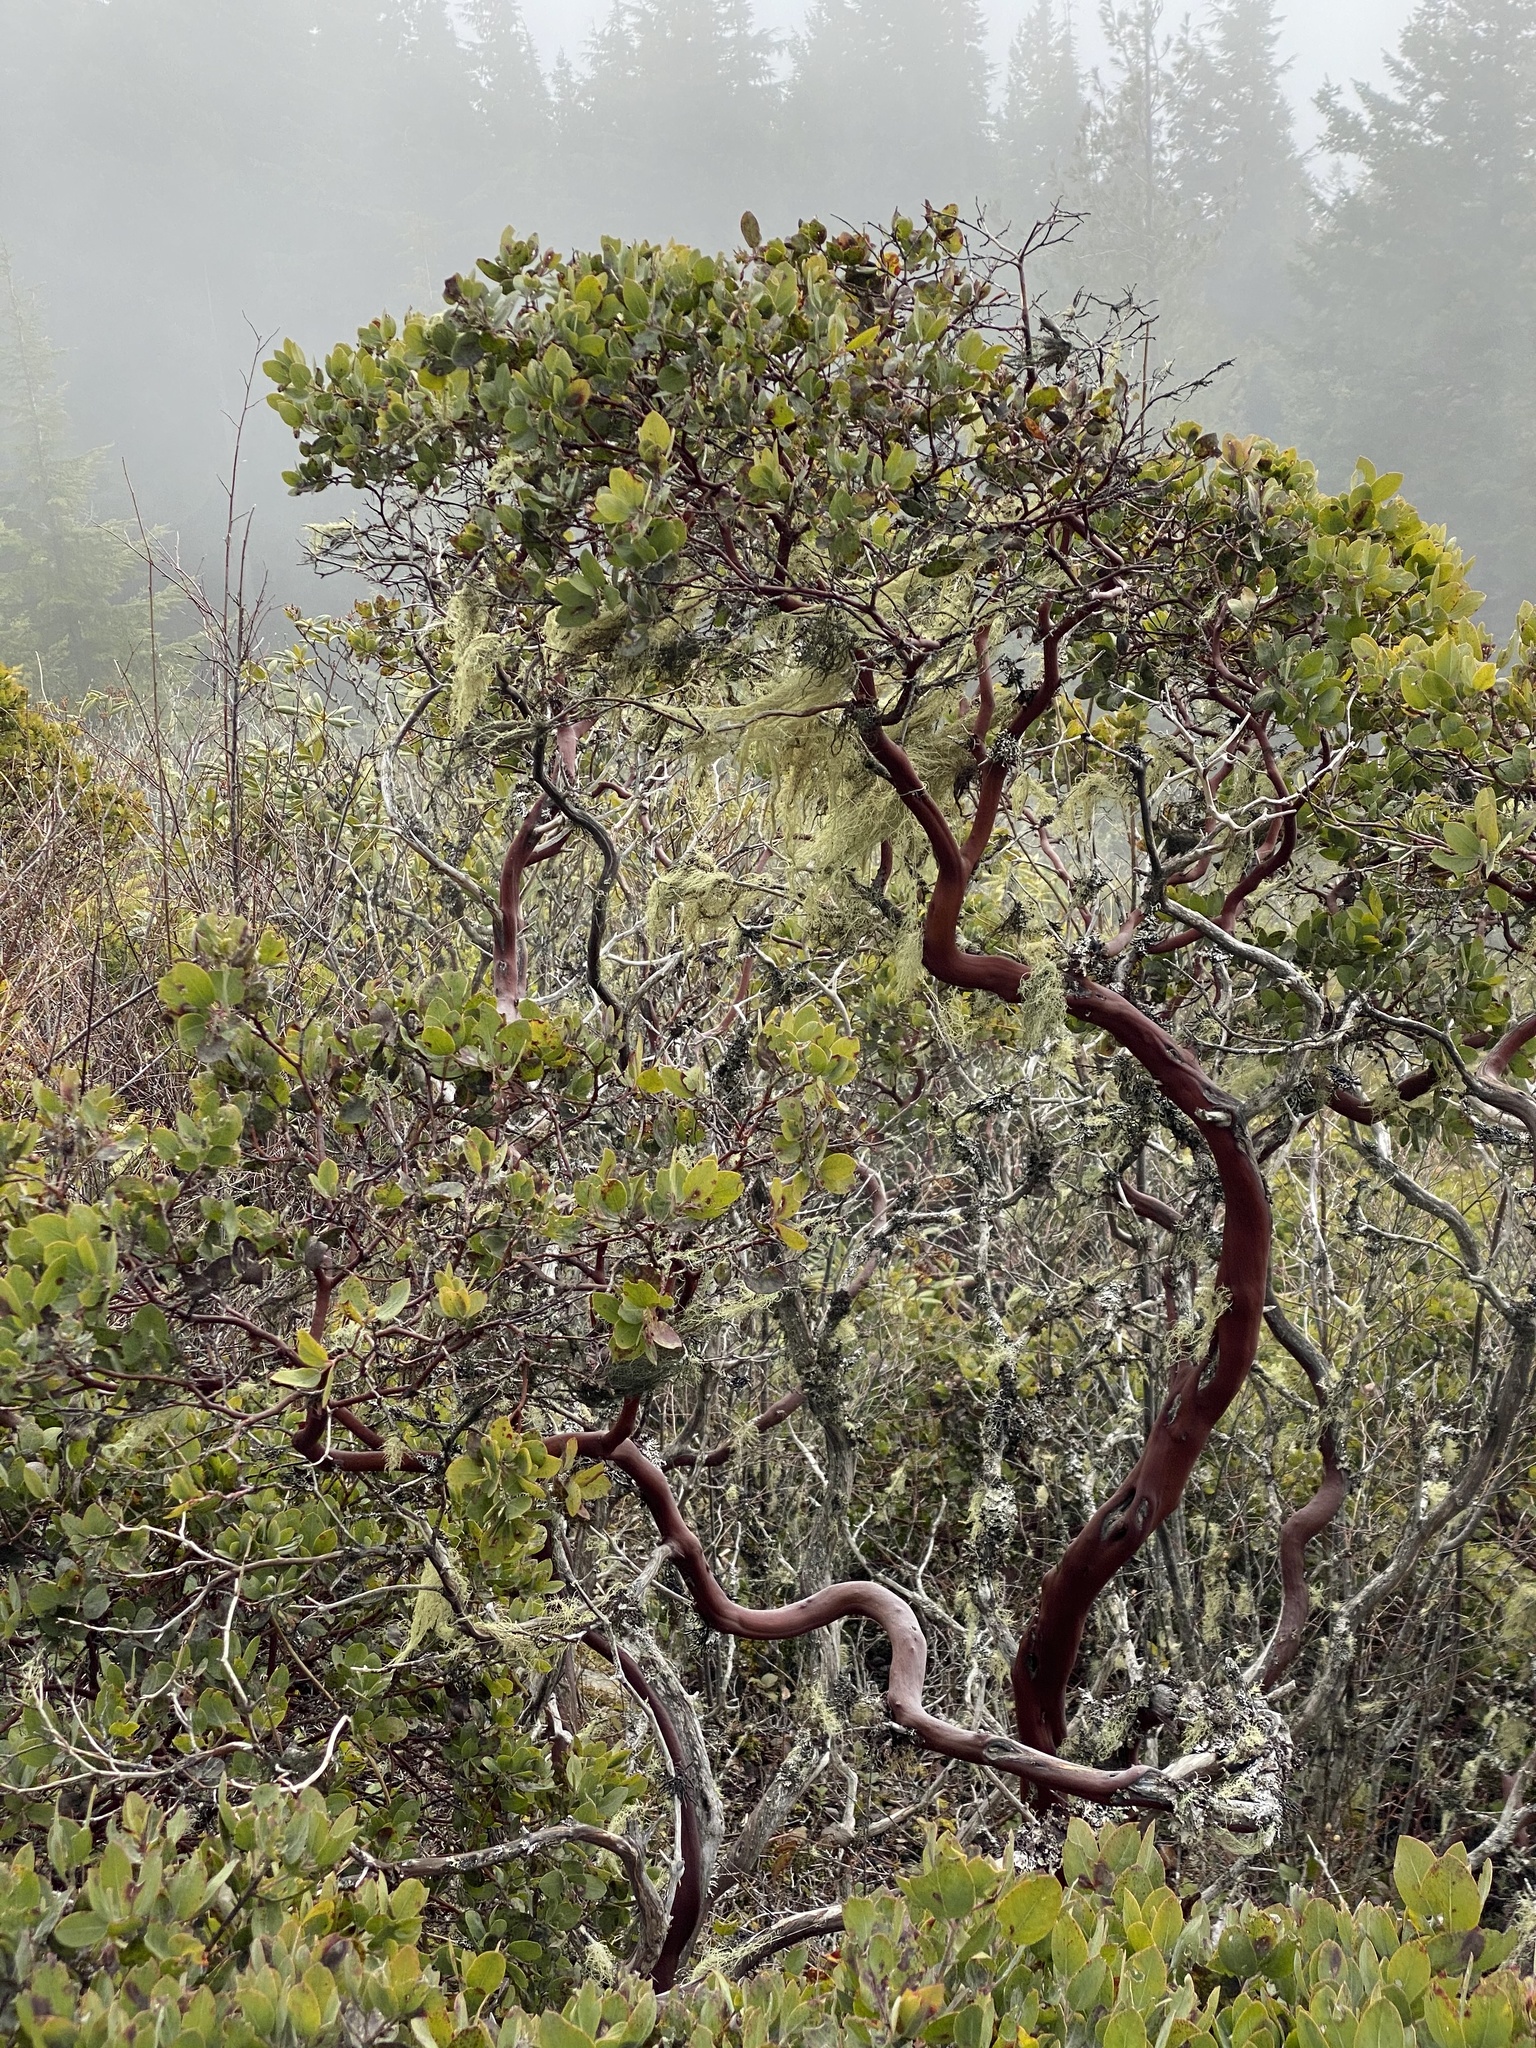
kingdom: Plantae
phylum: Tracheophyta
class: Magnoliopsida
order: Ericales
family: Ericaceae
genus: Arctostaphylos
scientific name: Arctostaphylos columbiana
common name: Bristly bearberry
